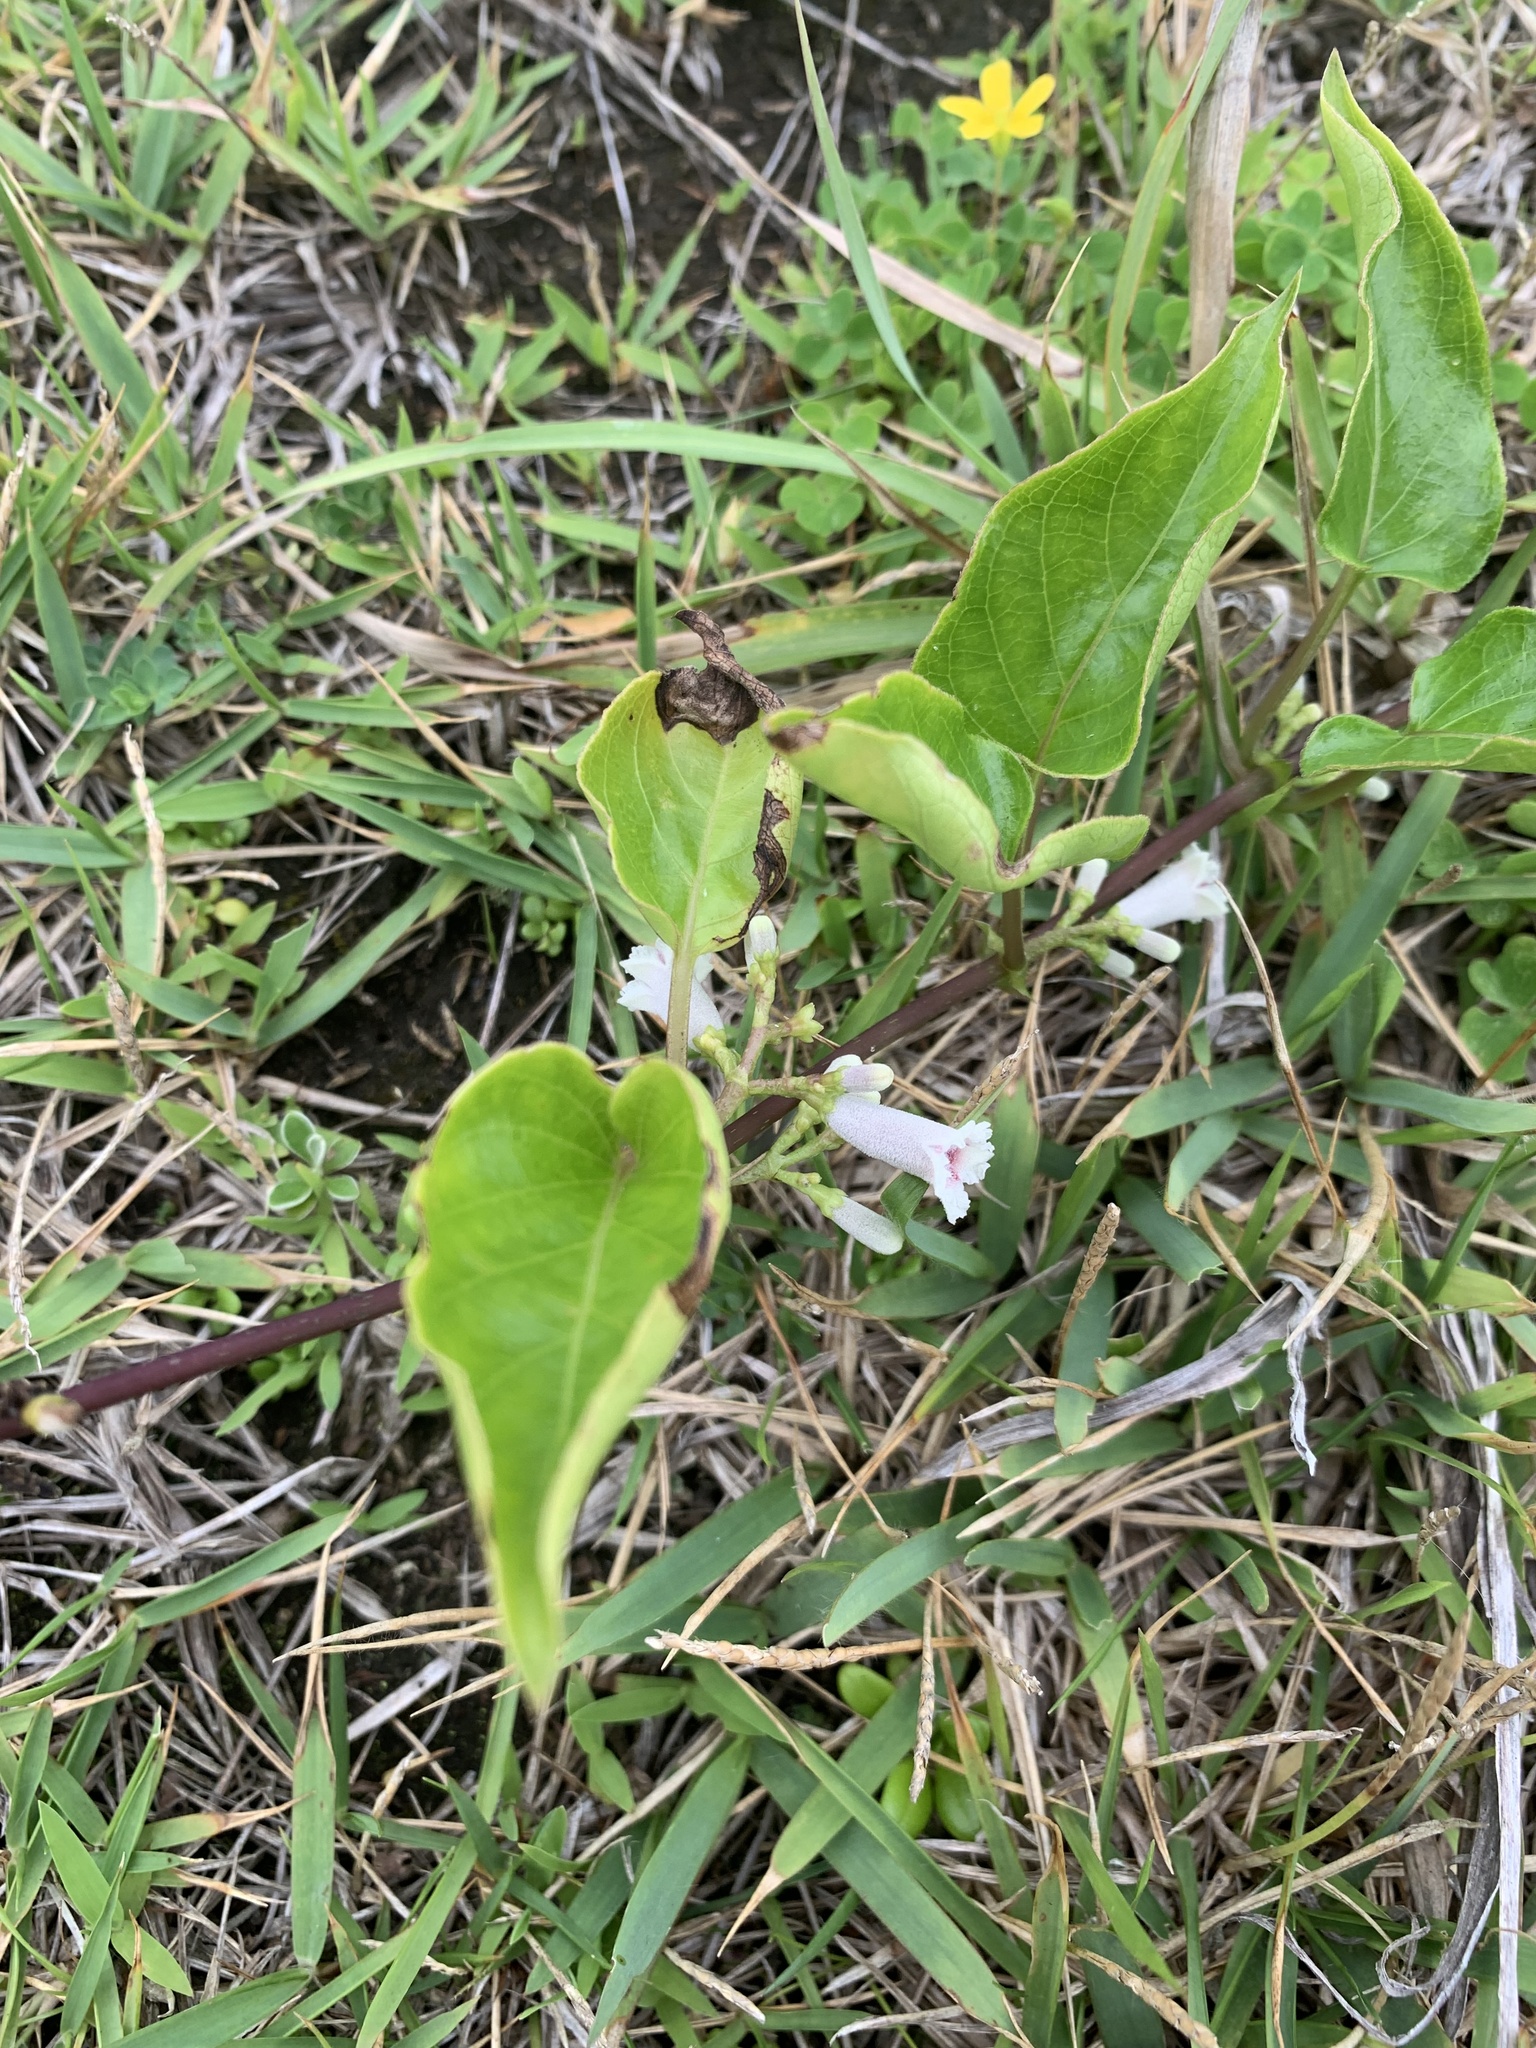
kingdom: Plantae
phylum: Tracheophyta
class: Magnoliopsida
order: Gentianales
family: Rubiaceae
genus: Paederia
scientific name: Paederia foetida
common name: Stinkvine
